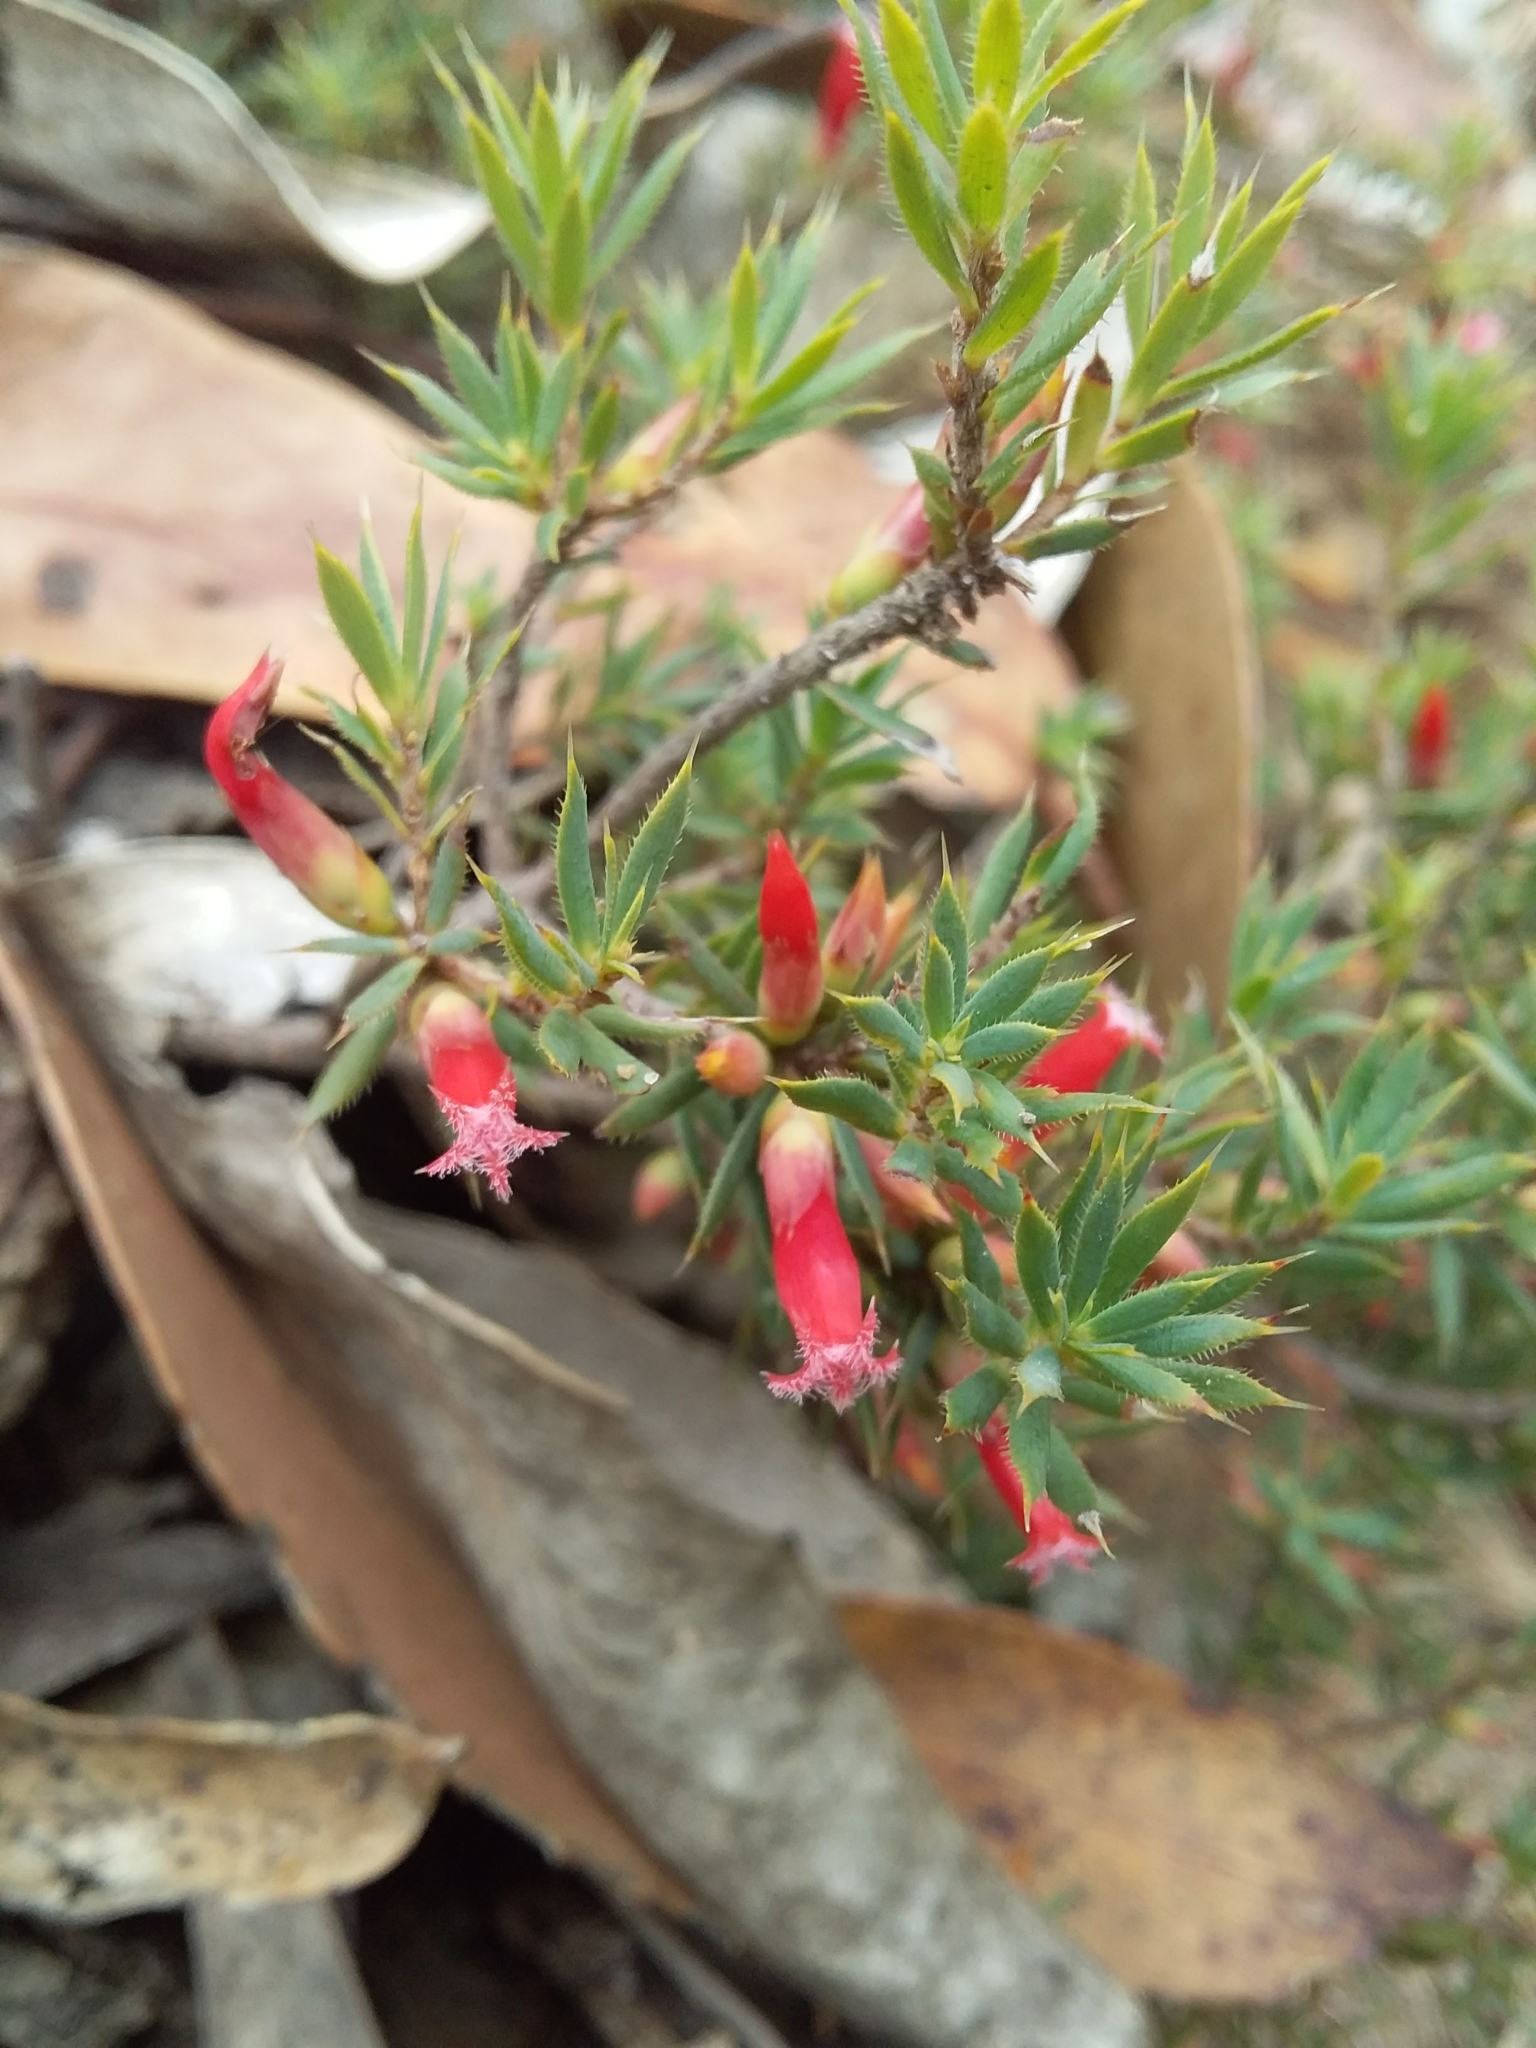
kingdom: Plantae
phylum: Tracheophyta
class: Magnoliopsida
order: Ericales
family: Ericaceae
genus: Styphelia
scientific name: Styphelia humifusa
